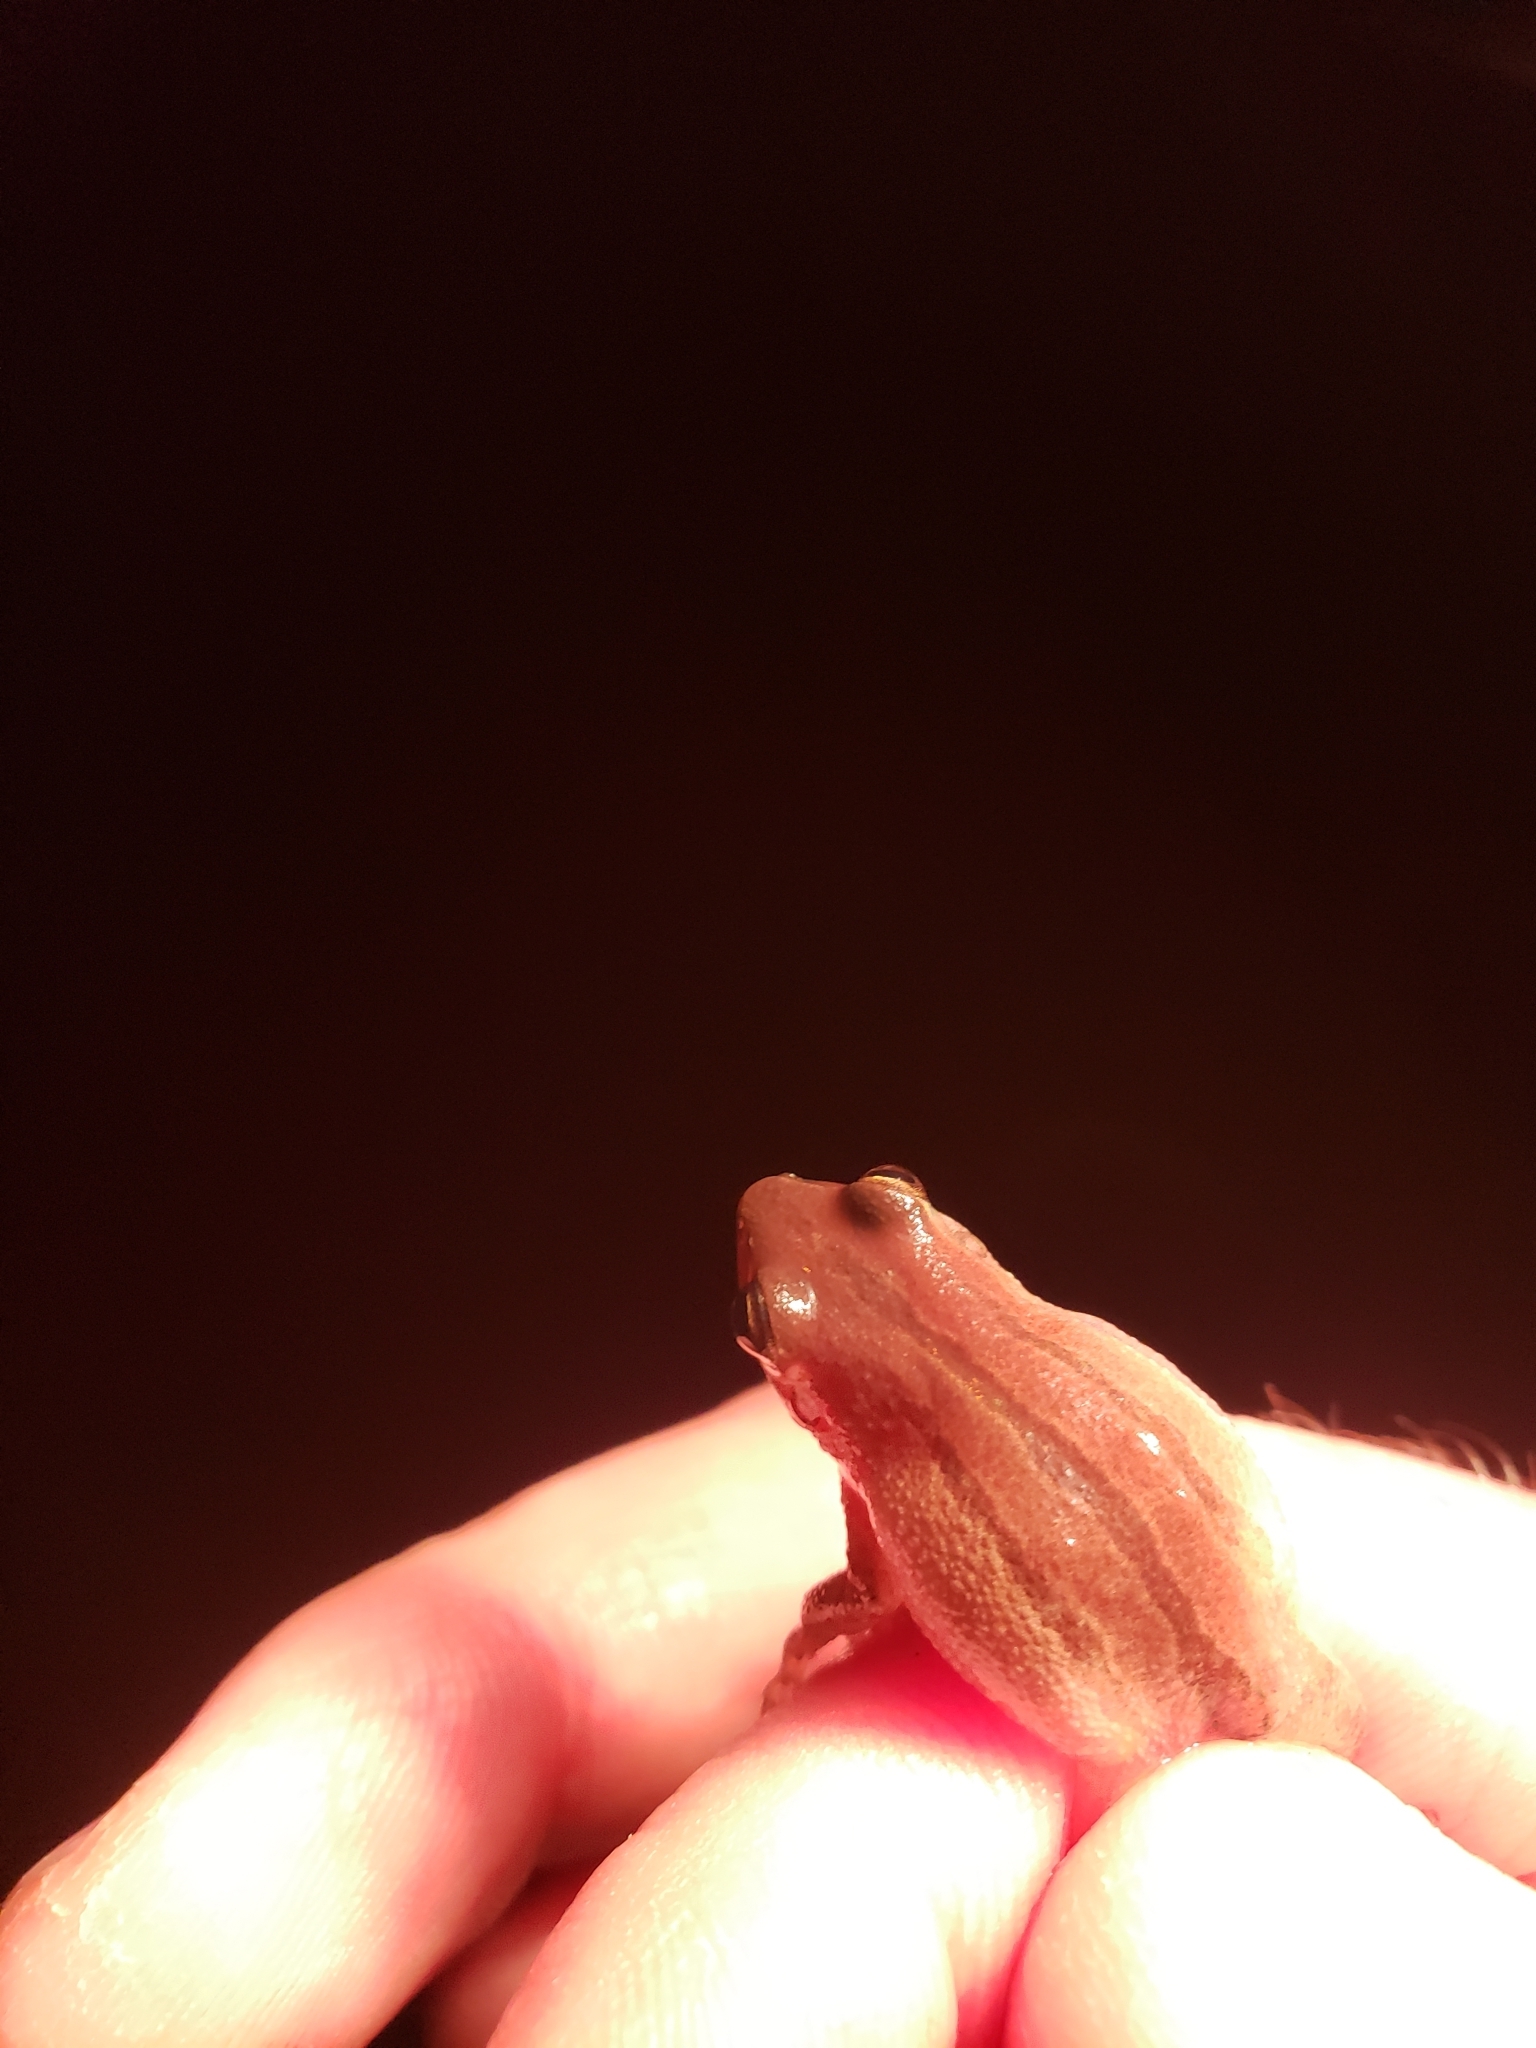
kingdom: Animalia
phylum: Chordata
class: Amphibia
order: Anura
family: Hylidae
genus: Pseudacris
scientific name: Pseudacris fouquettei
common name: Cajun chorus frog
